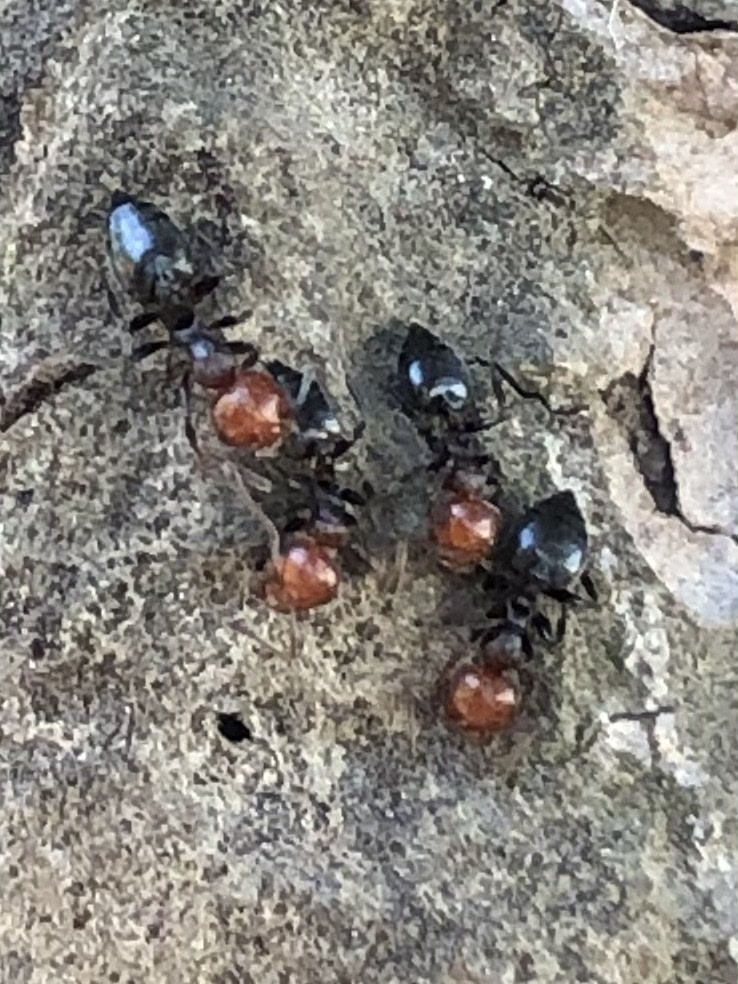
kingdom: Animalia
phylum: Arthropoda
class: Insecta
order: Hymenoptera
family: Formicidae
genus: Crematogaster
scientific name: Crematogaster scutellaris
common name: Fourmi du liège
